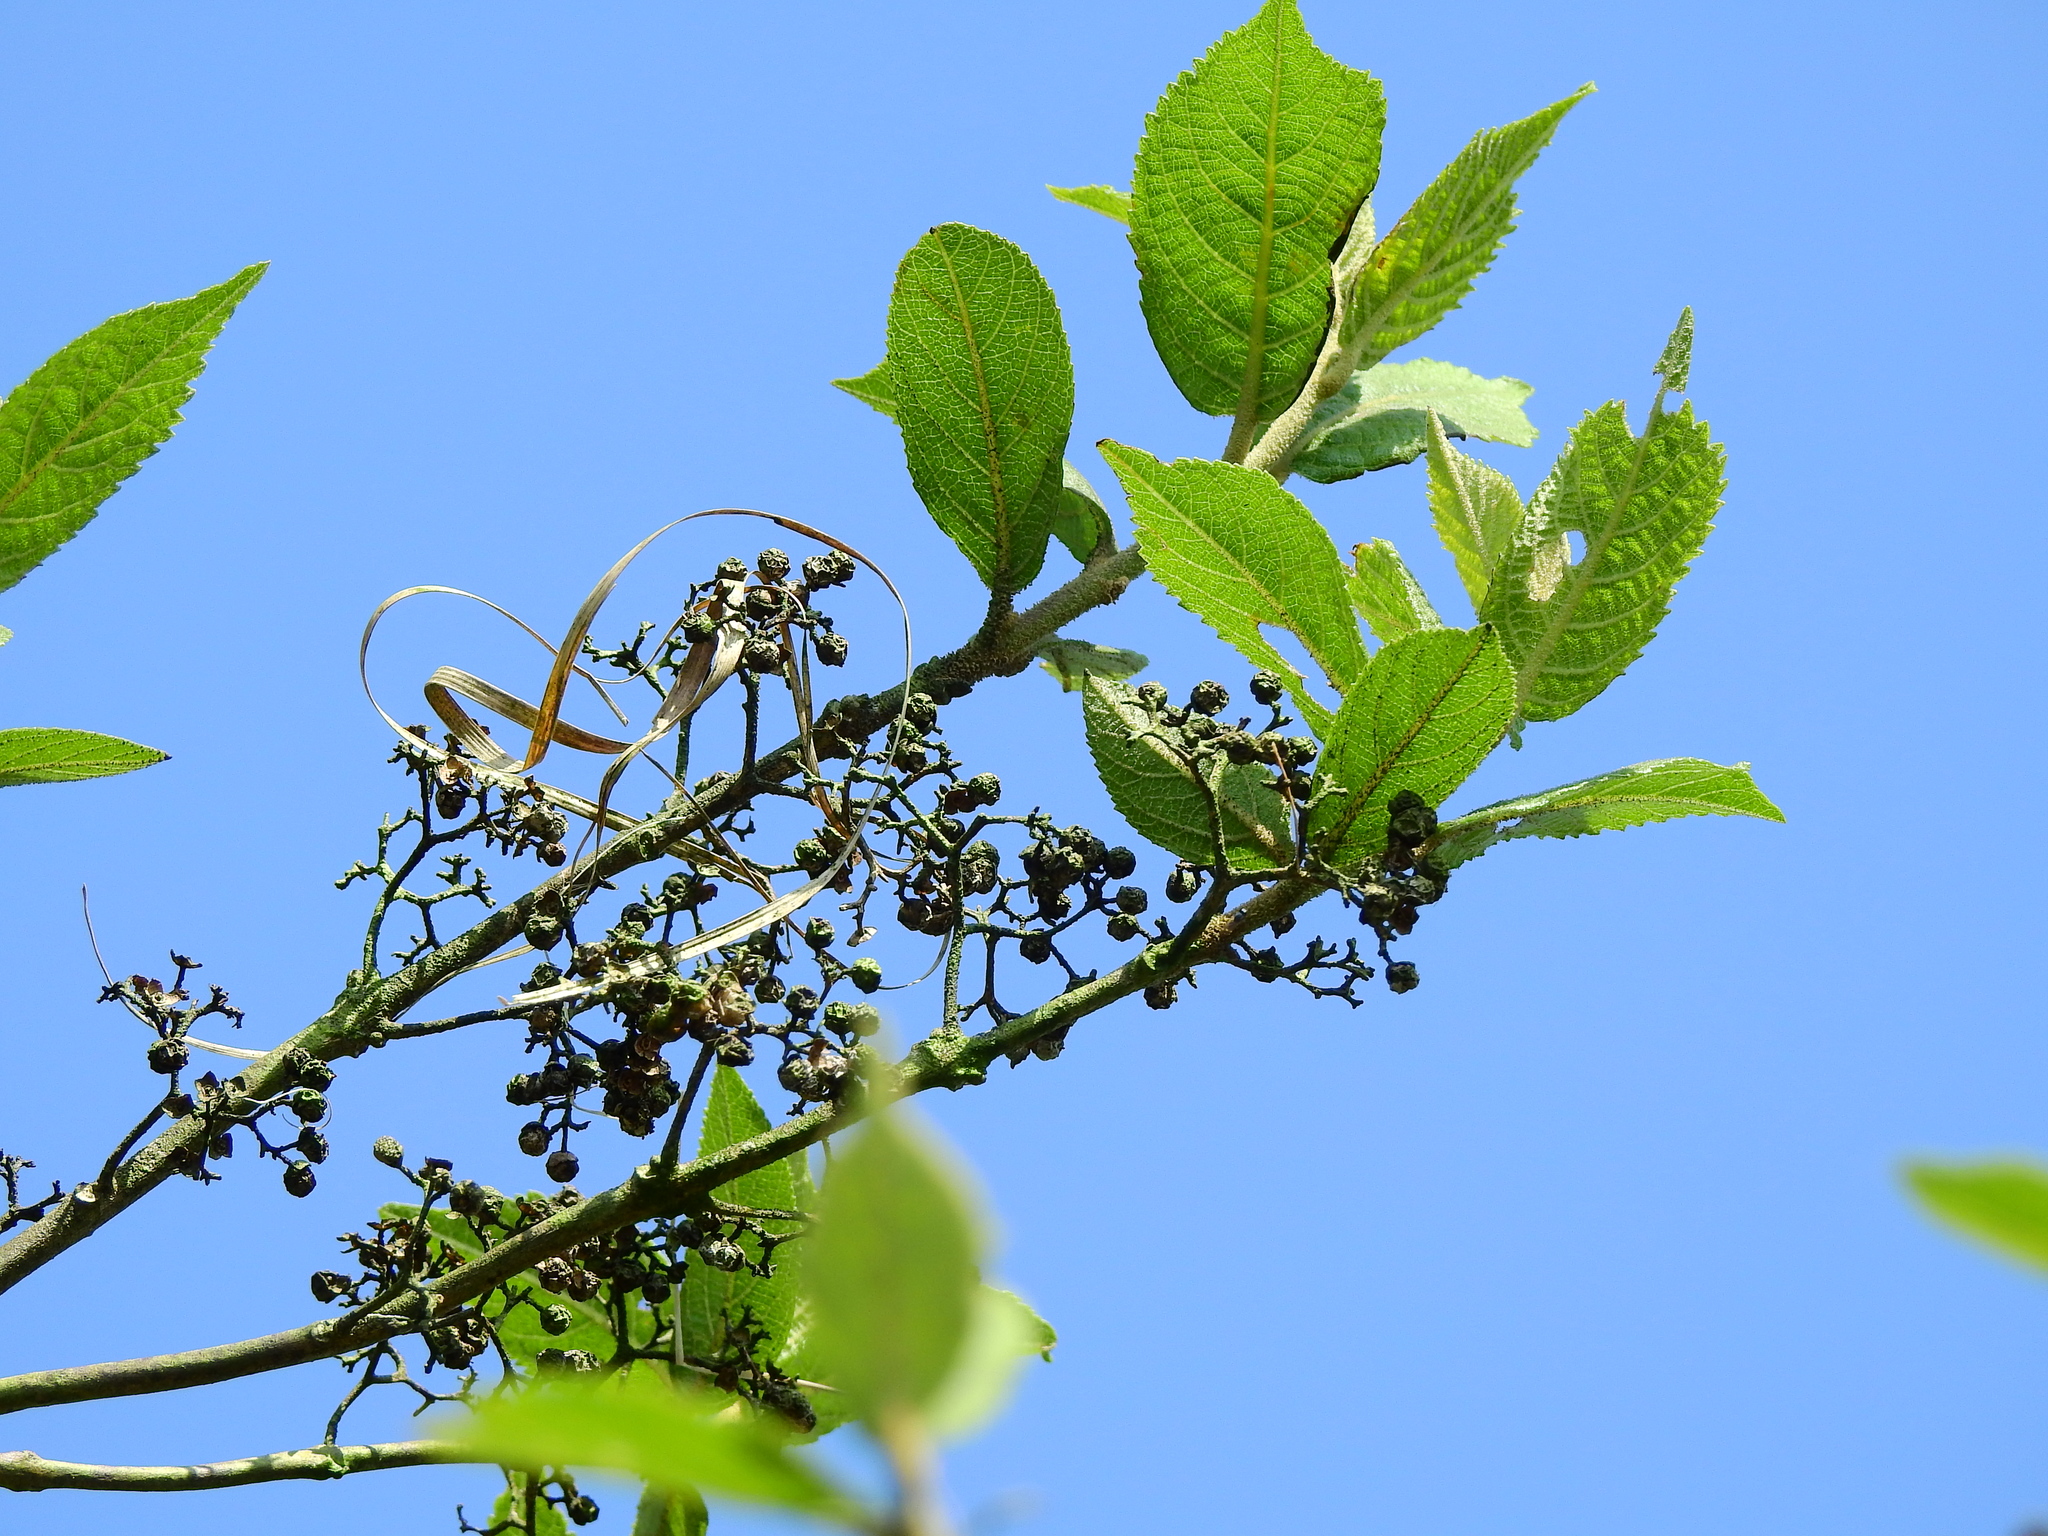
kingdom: Plantae
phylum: Tracheophyta
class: Magnoliopsida
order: Lamiales
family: Lamiaceae
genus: Callicarpa
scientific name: Callicarpa tikusikensis
